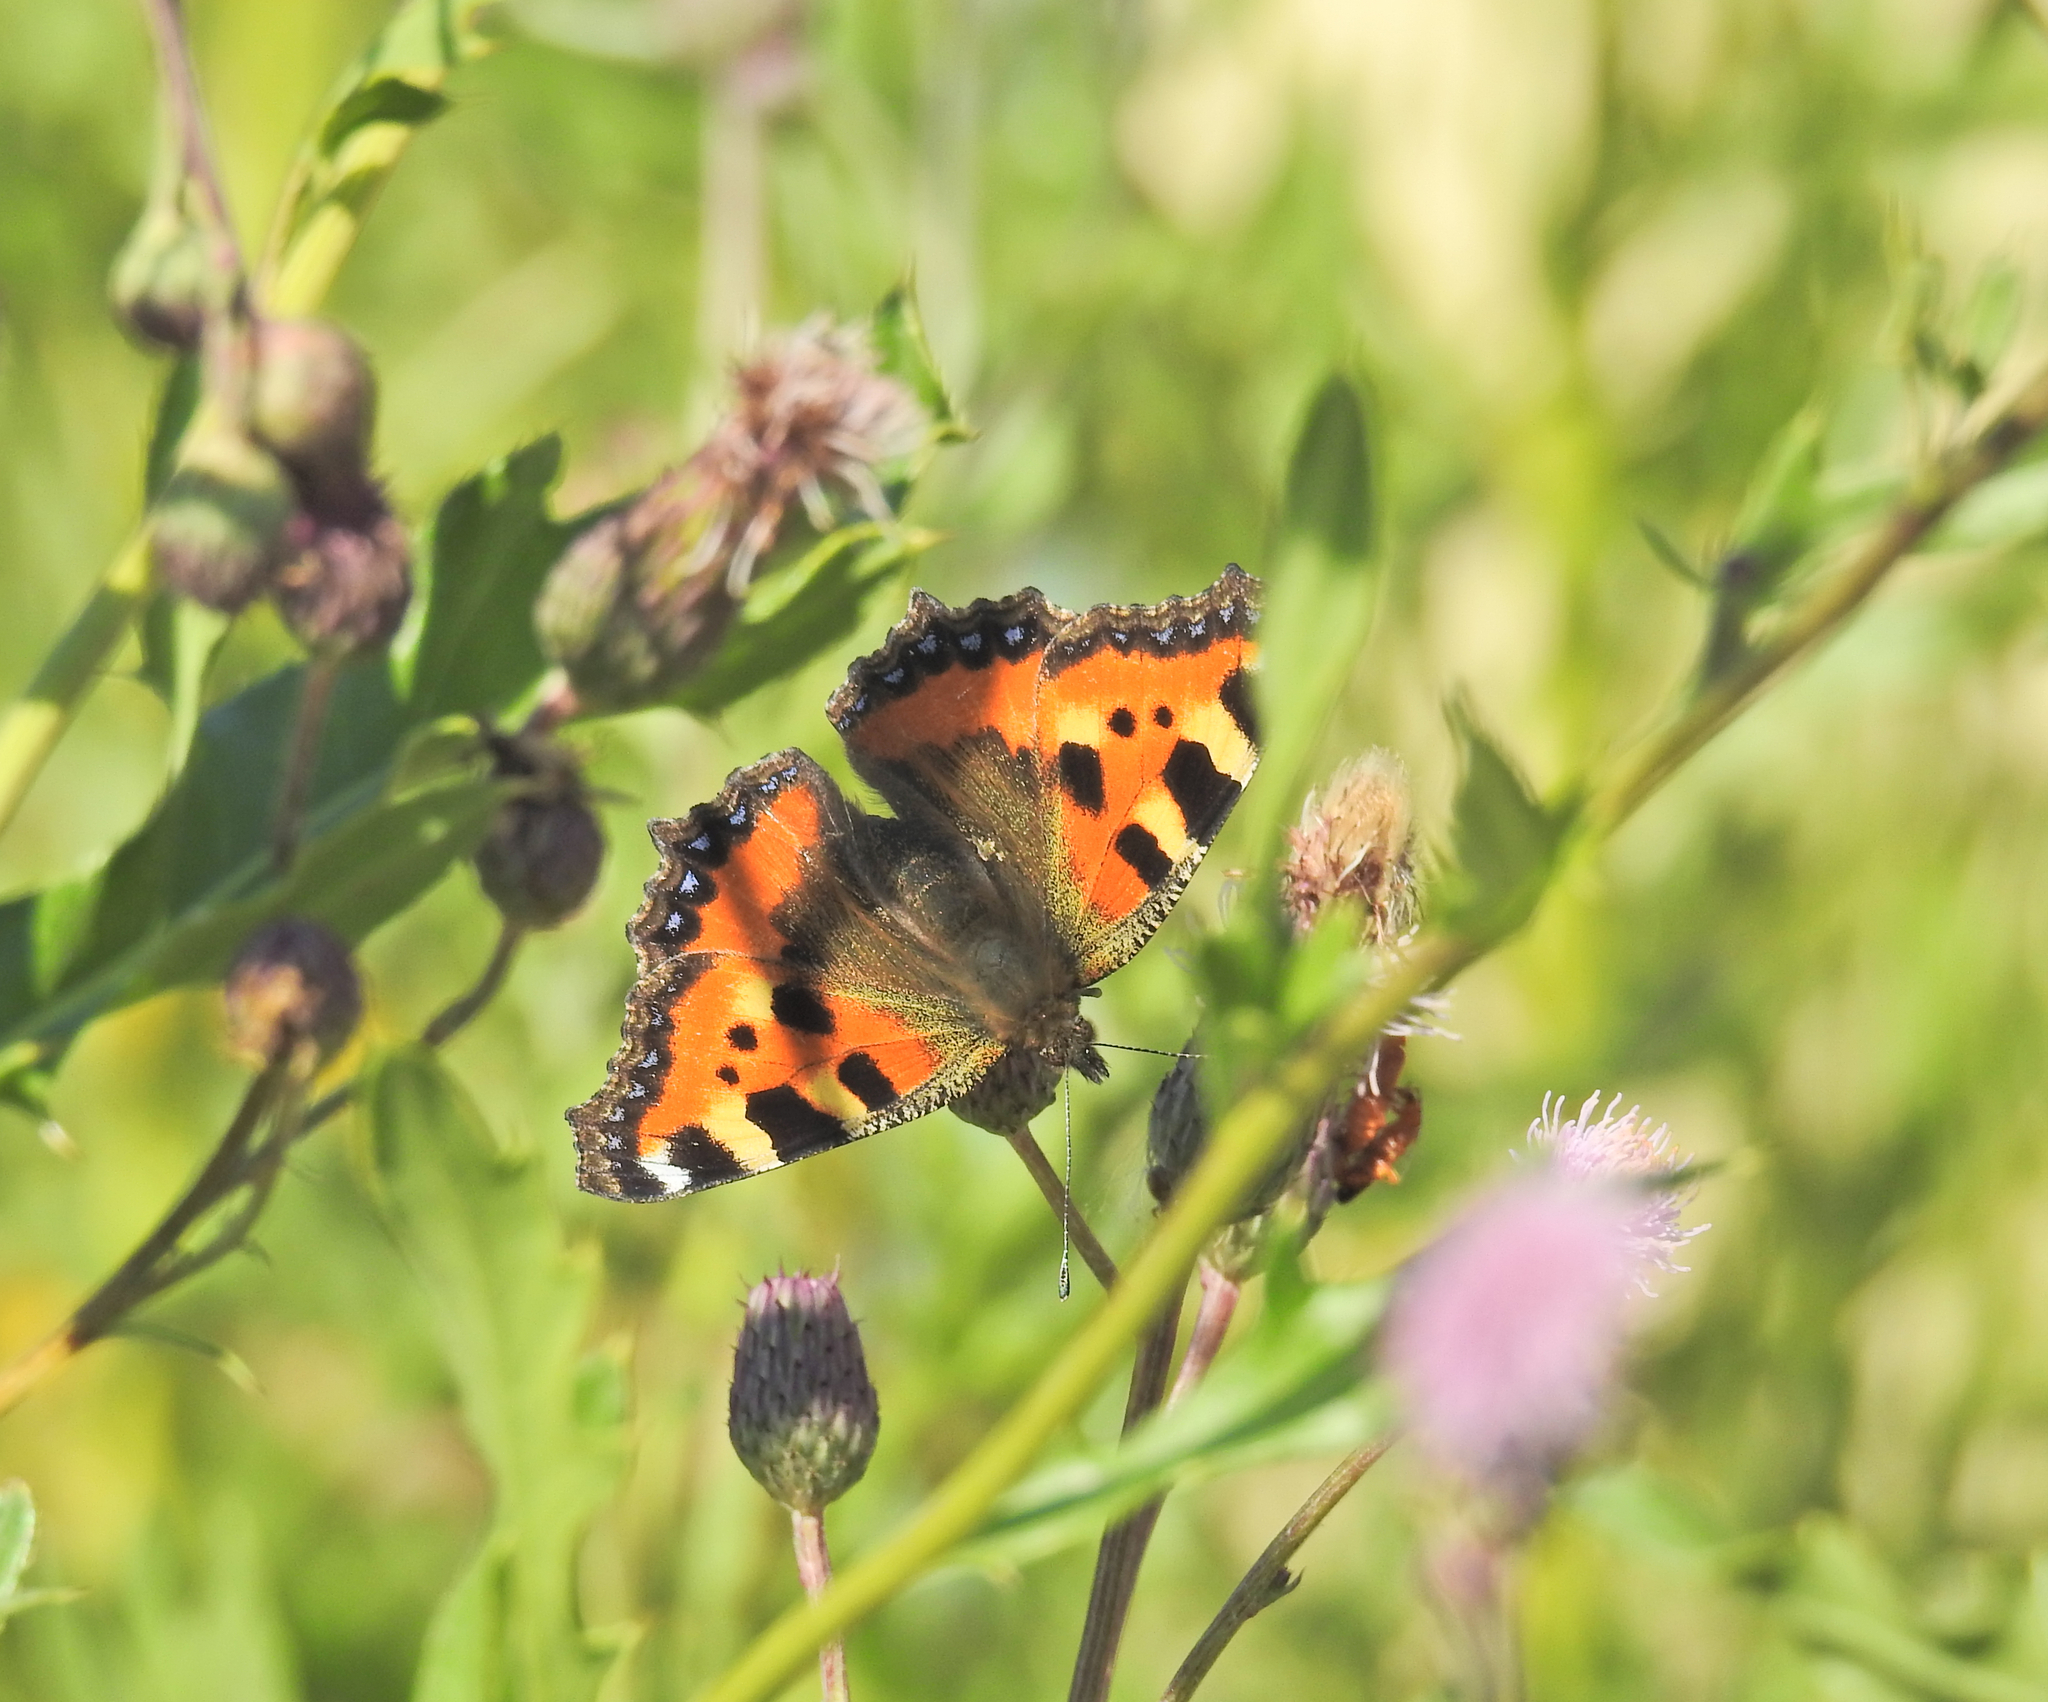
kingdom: Animalia
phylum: Arthropoda
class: Insecta
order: Lepidoptera
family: Nymphalidae
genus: Aglais
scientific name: Aglais urticae
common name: Small tortoiseshell
